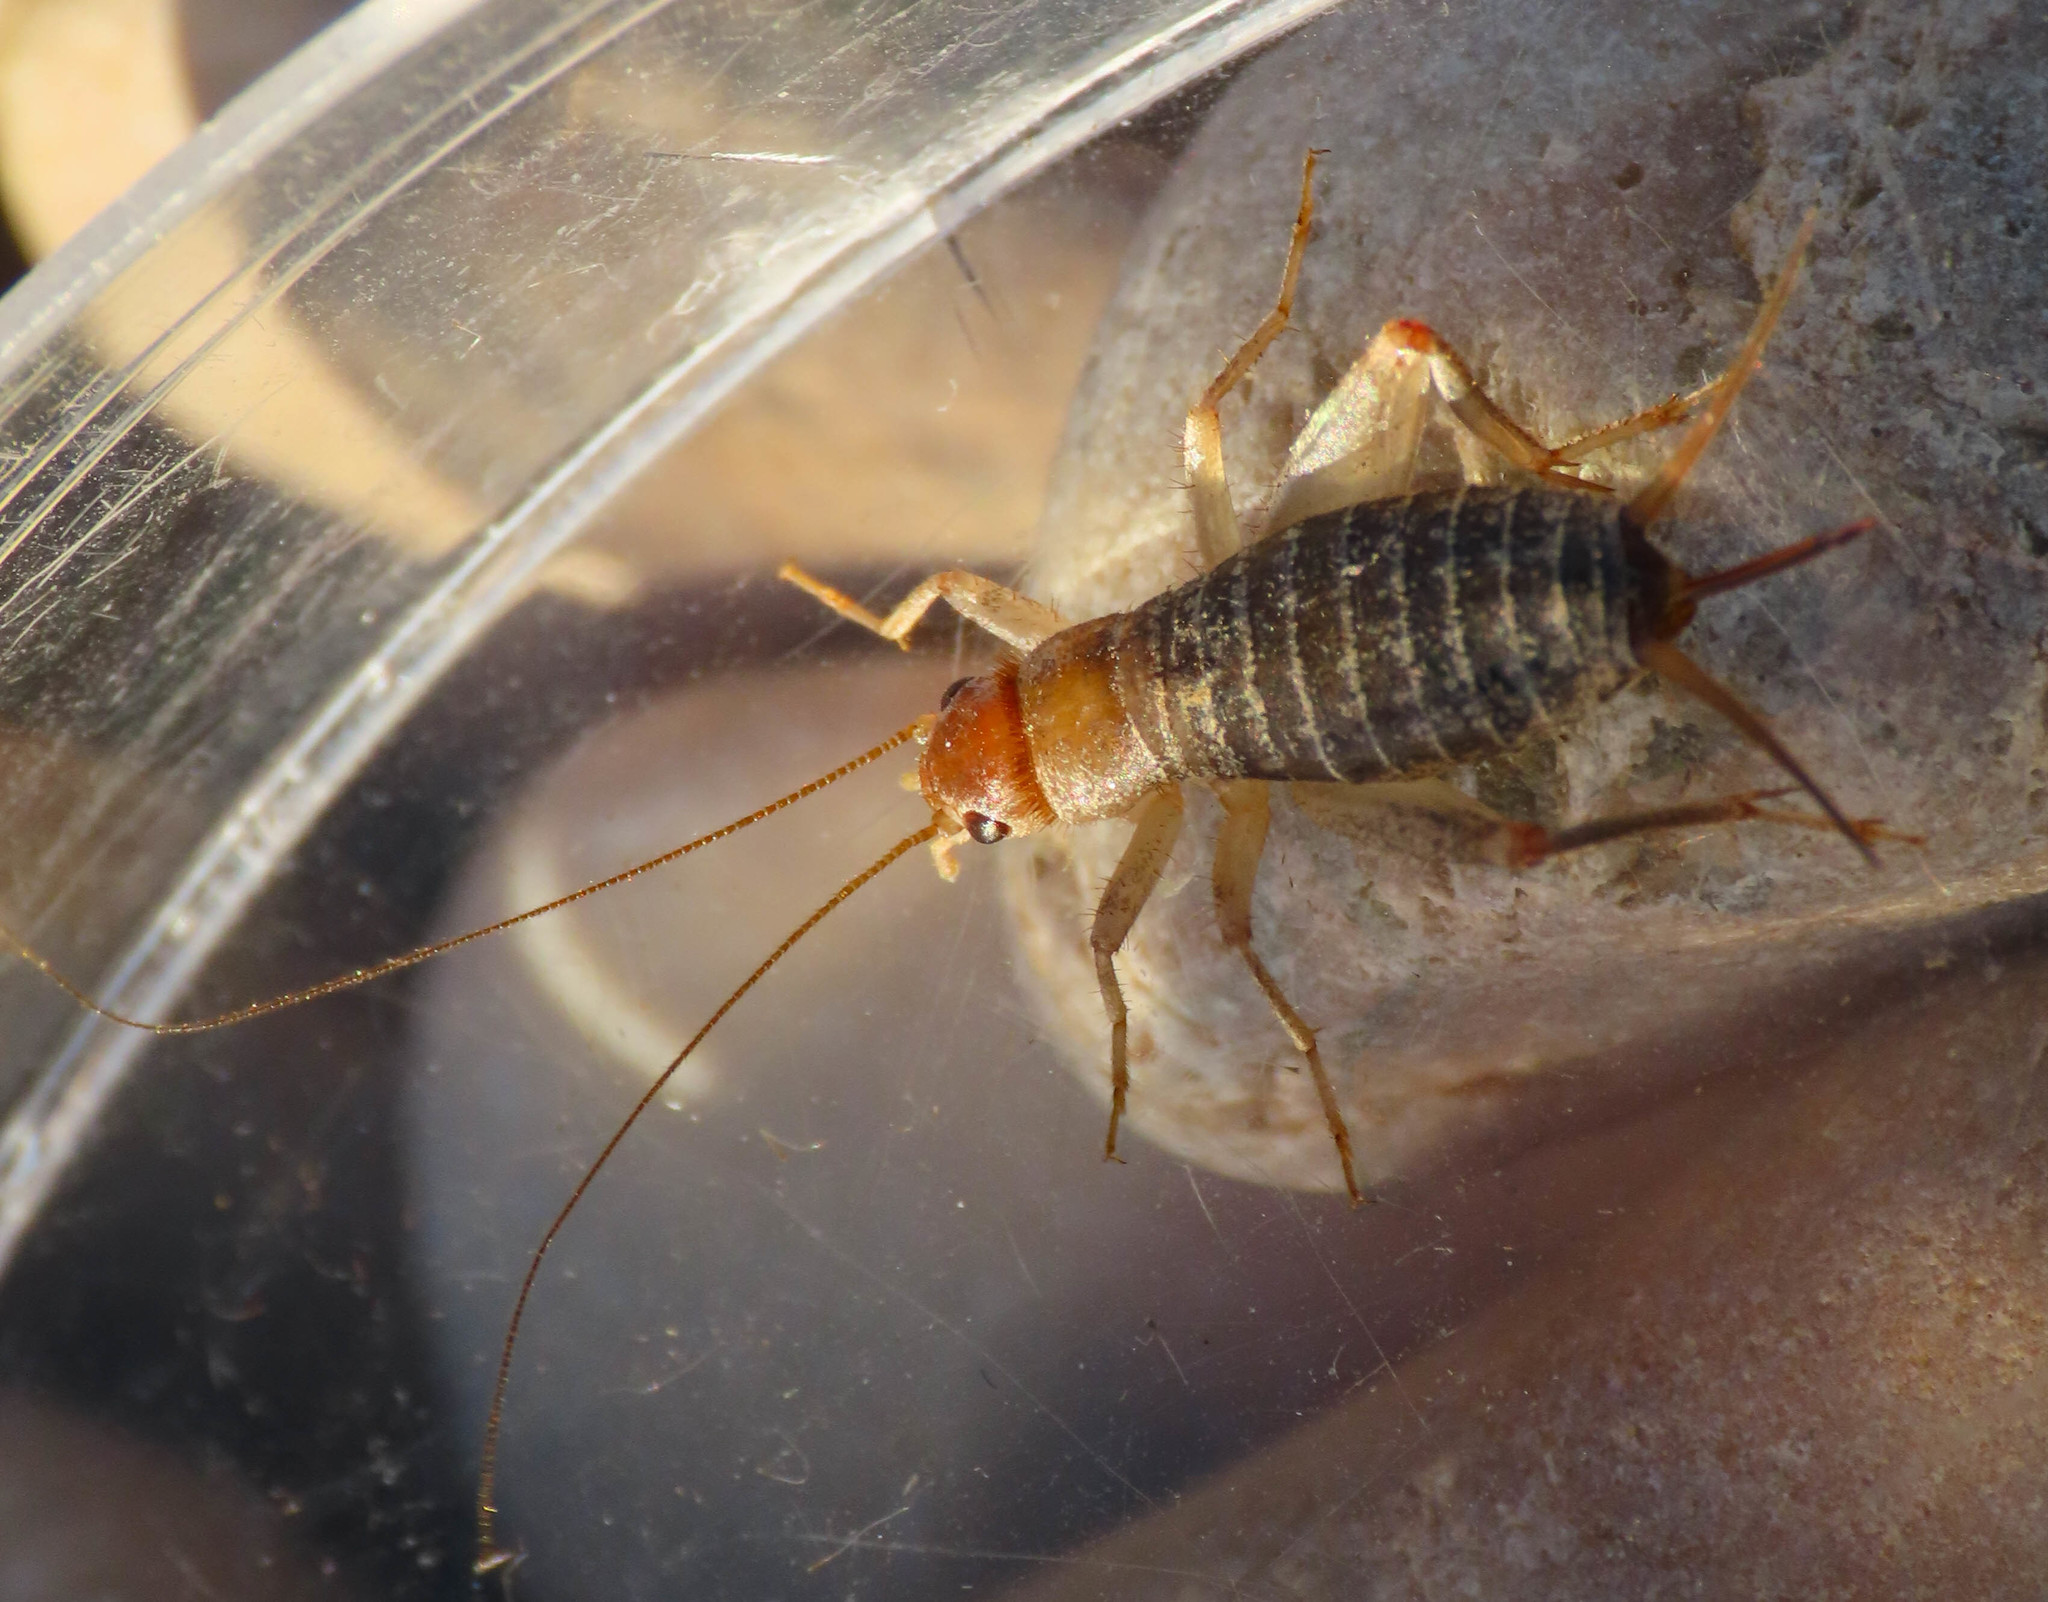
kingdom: Animalia
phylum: Arthropoda
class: Insecta
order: Orthoptera
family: Mogoplistidae
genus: Pseudomogoplistes
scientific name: Pseudomogoplistes squamiger
